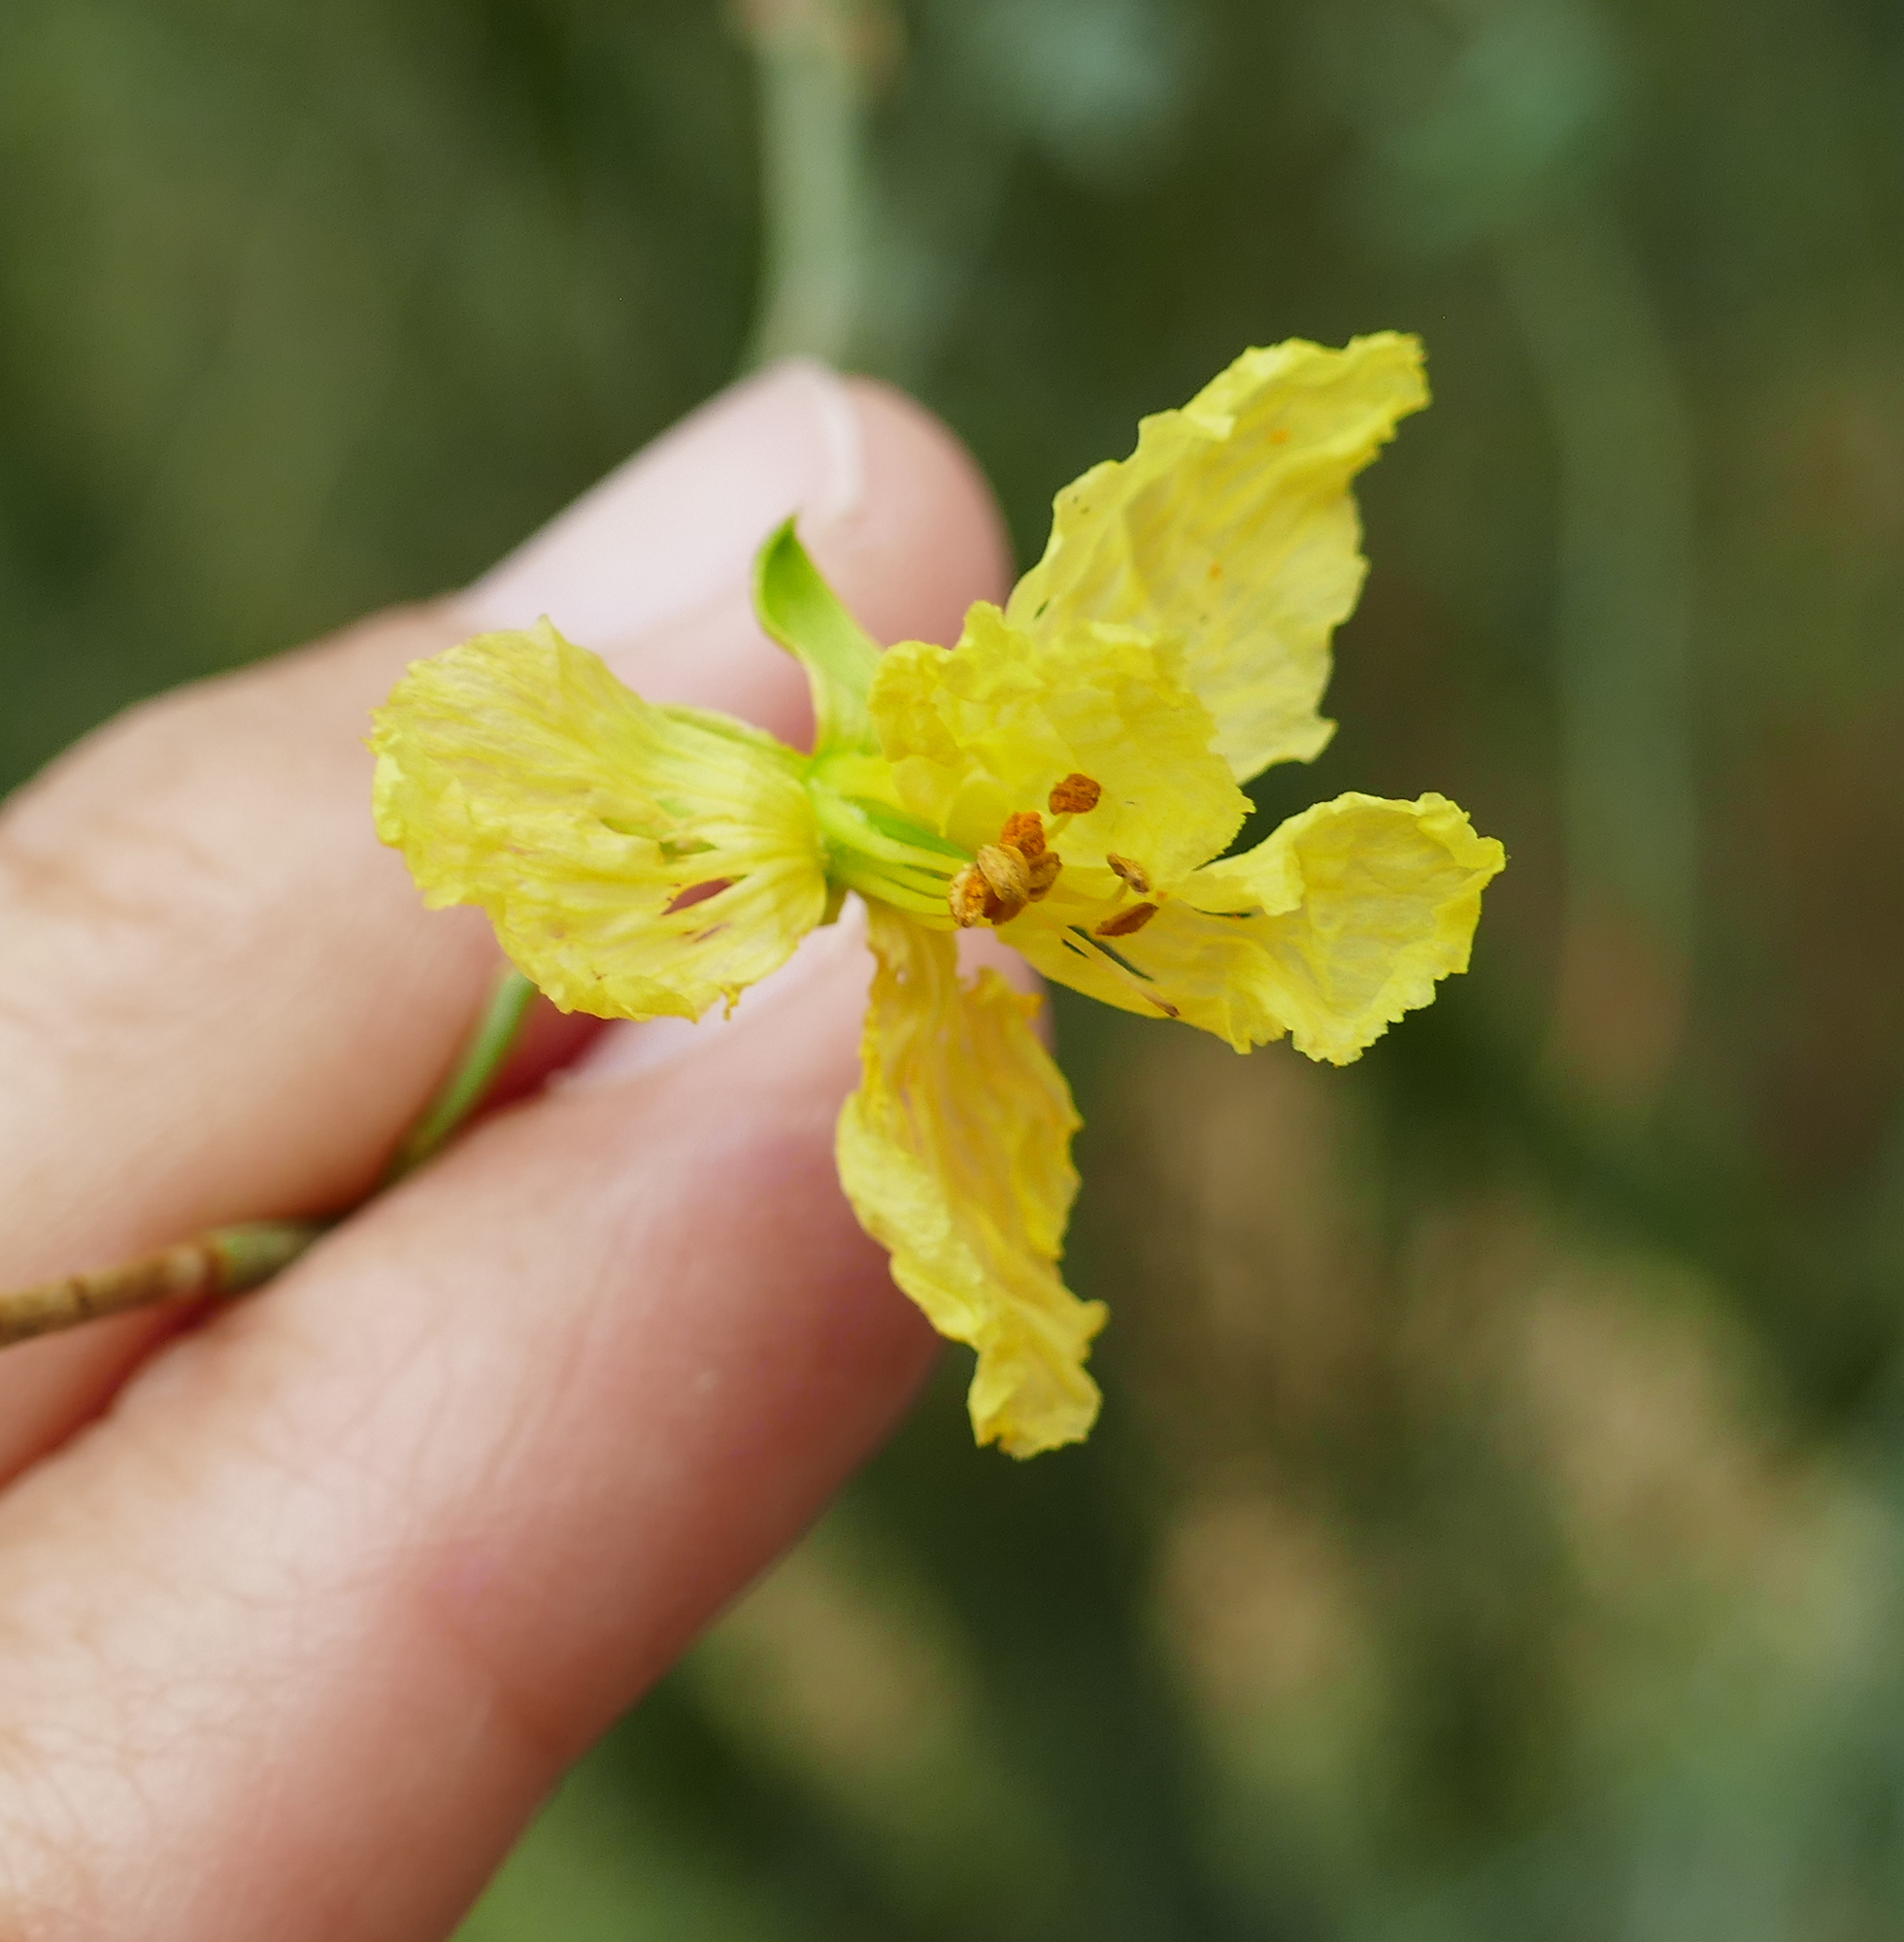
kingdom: Plantae
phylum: Tracheophyta
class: Magnoliopsida
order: Fabales
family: Fabaceae
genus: Parkinsonia
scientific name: Parkinsonia florida
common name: Blue paloverde
